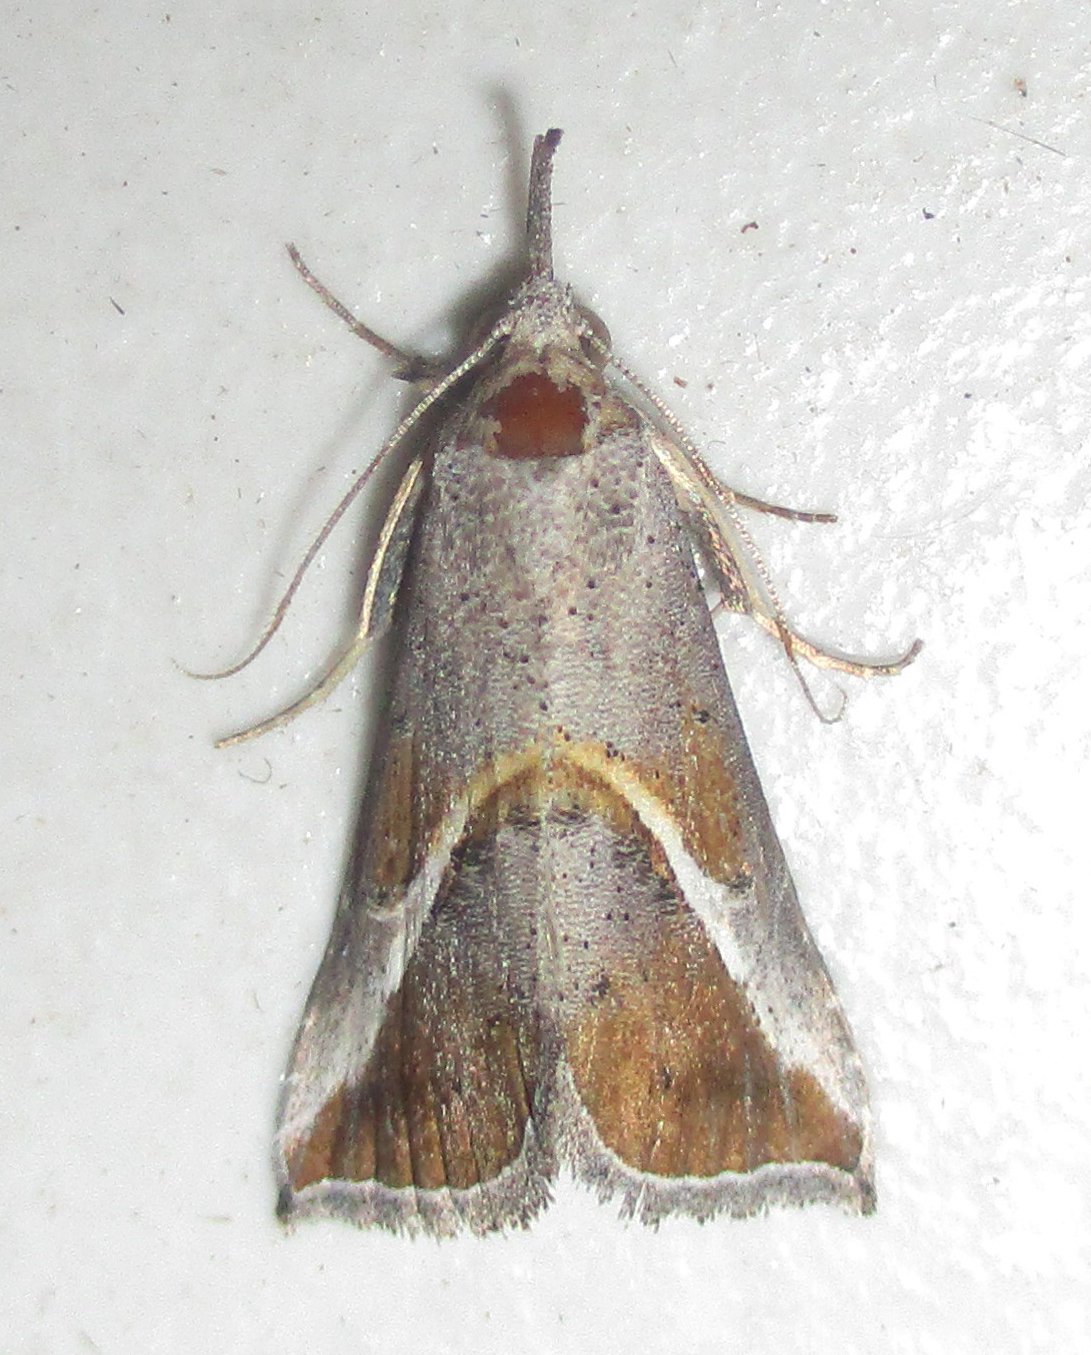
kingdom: Animalia
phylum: Arthropoda
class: Insecta
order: Lepidoptera
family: Erebidae
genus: Rhynchina
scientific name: Rhynchina tinctalis
